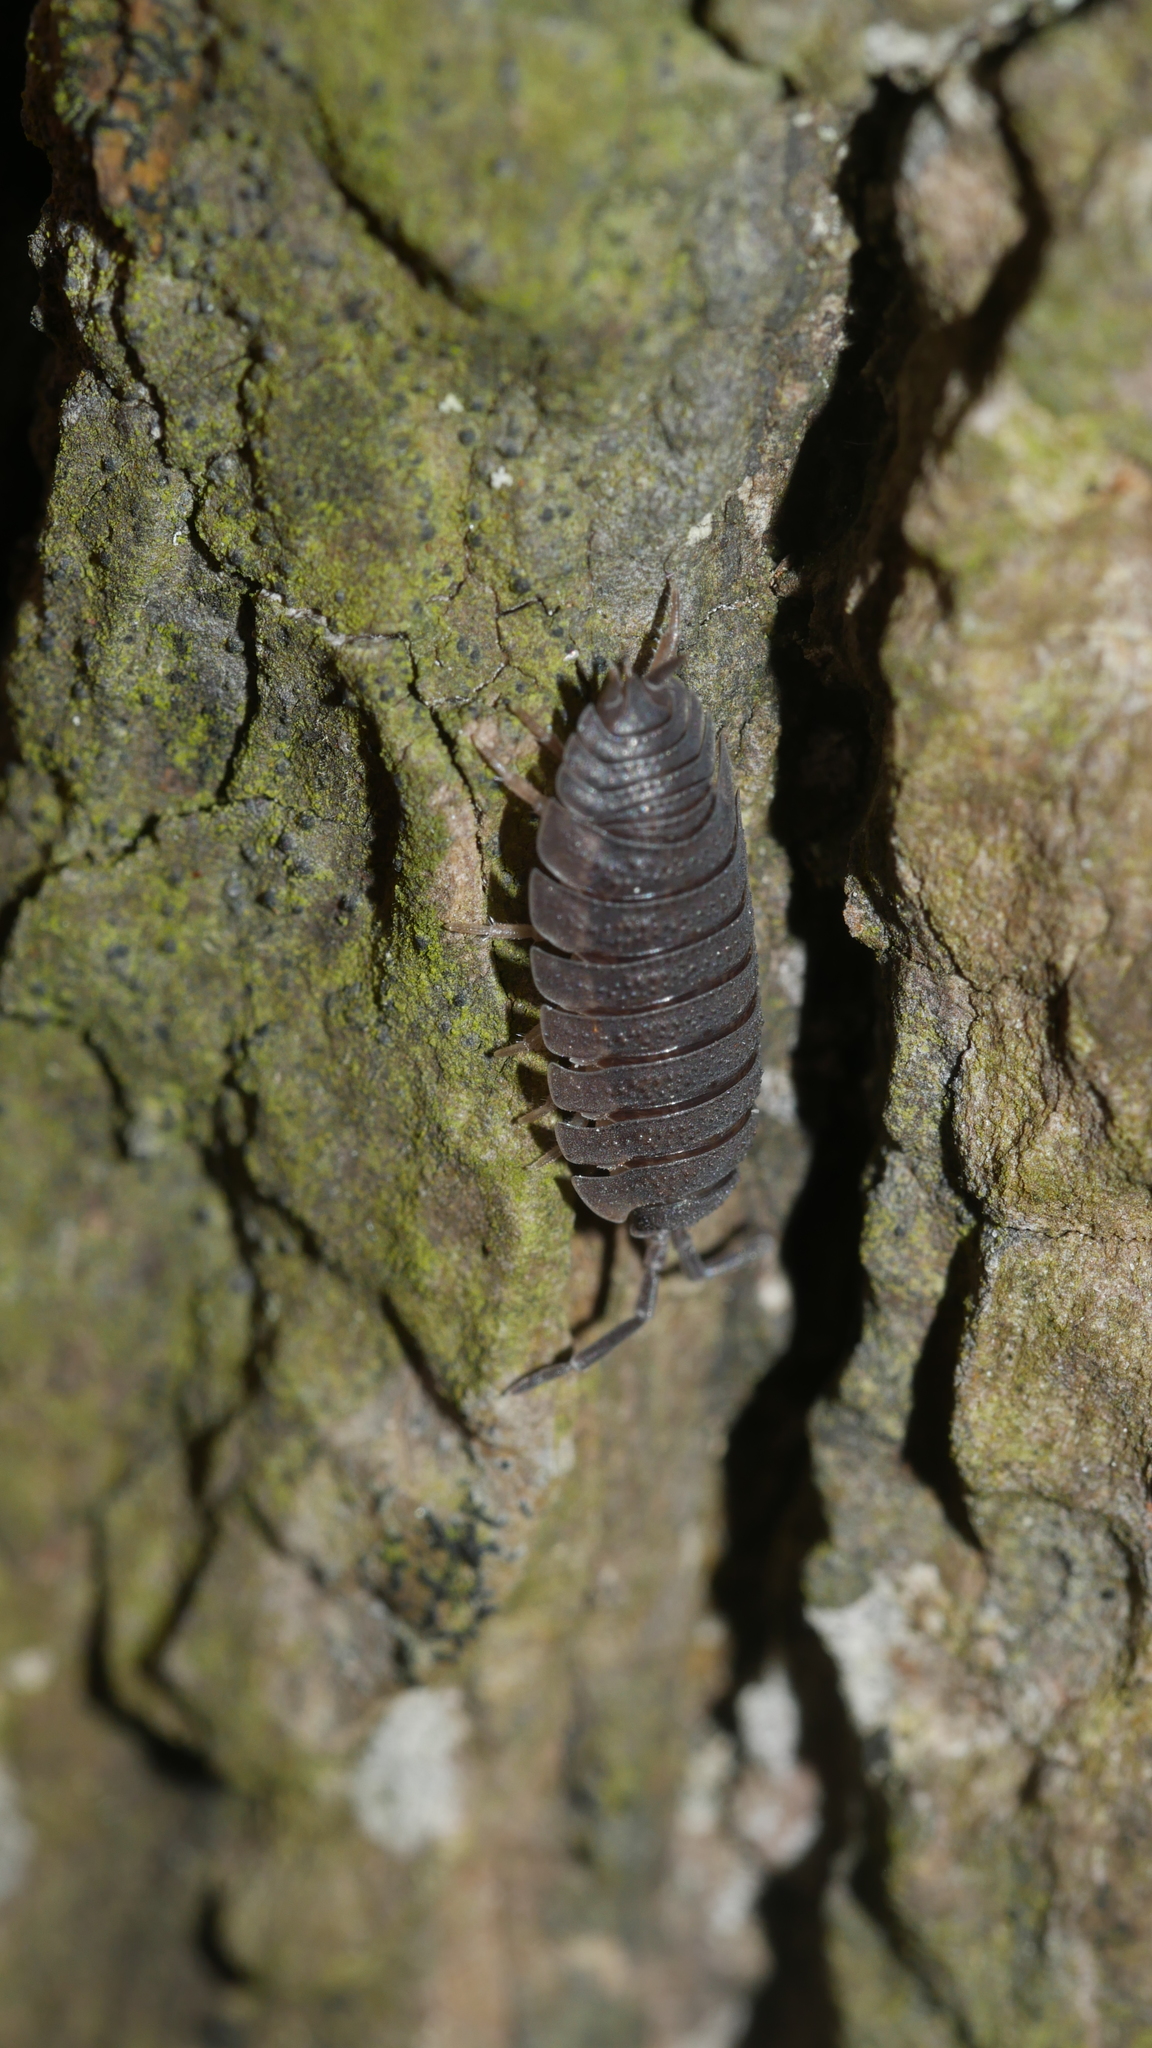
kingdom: Animalia
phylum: Arthropoda
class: Malacostraca
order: Isopoda
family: Porcellionidae
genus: Porcellio
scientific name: Porcellio scaber
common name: Common rough woodlouse
